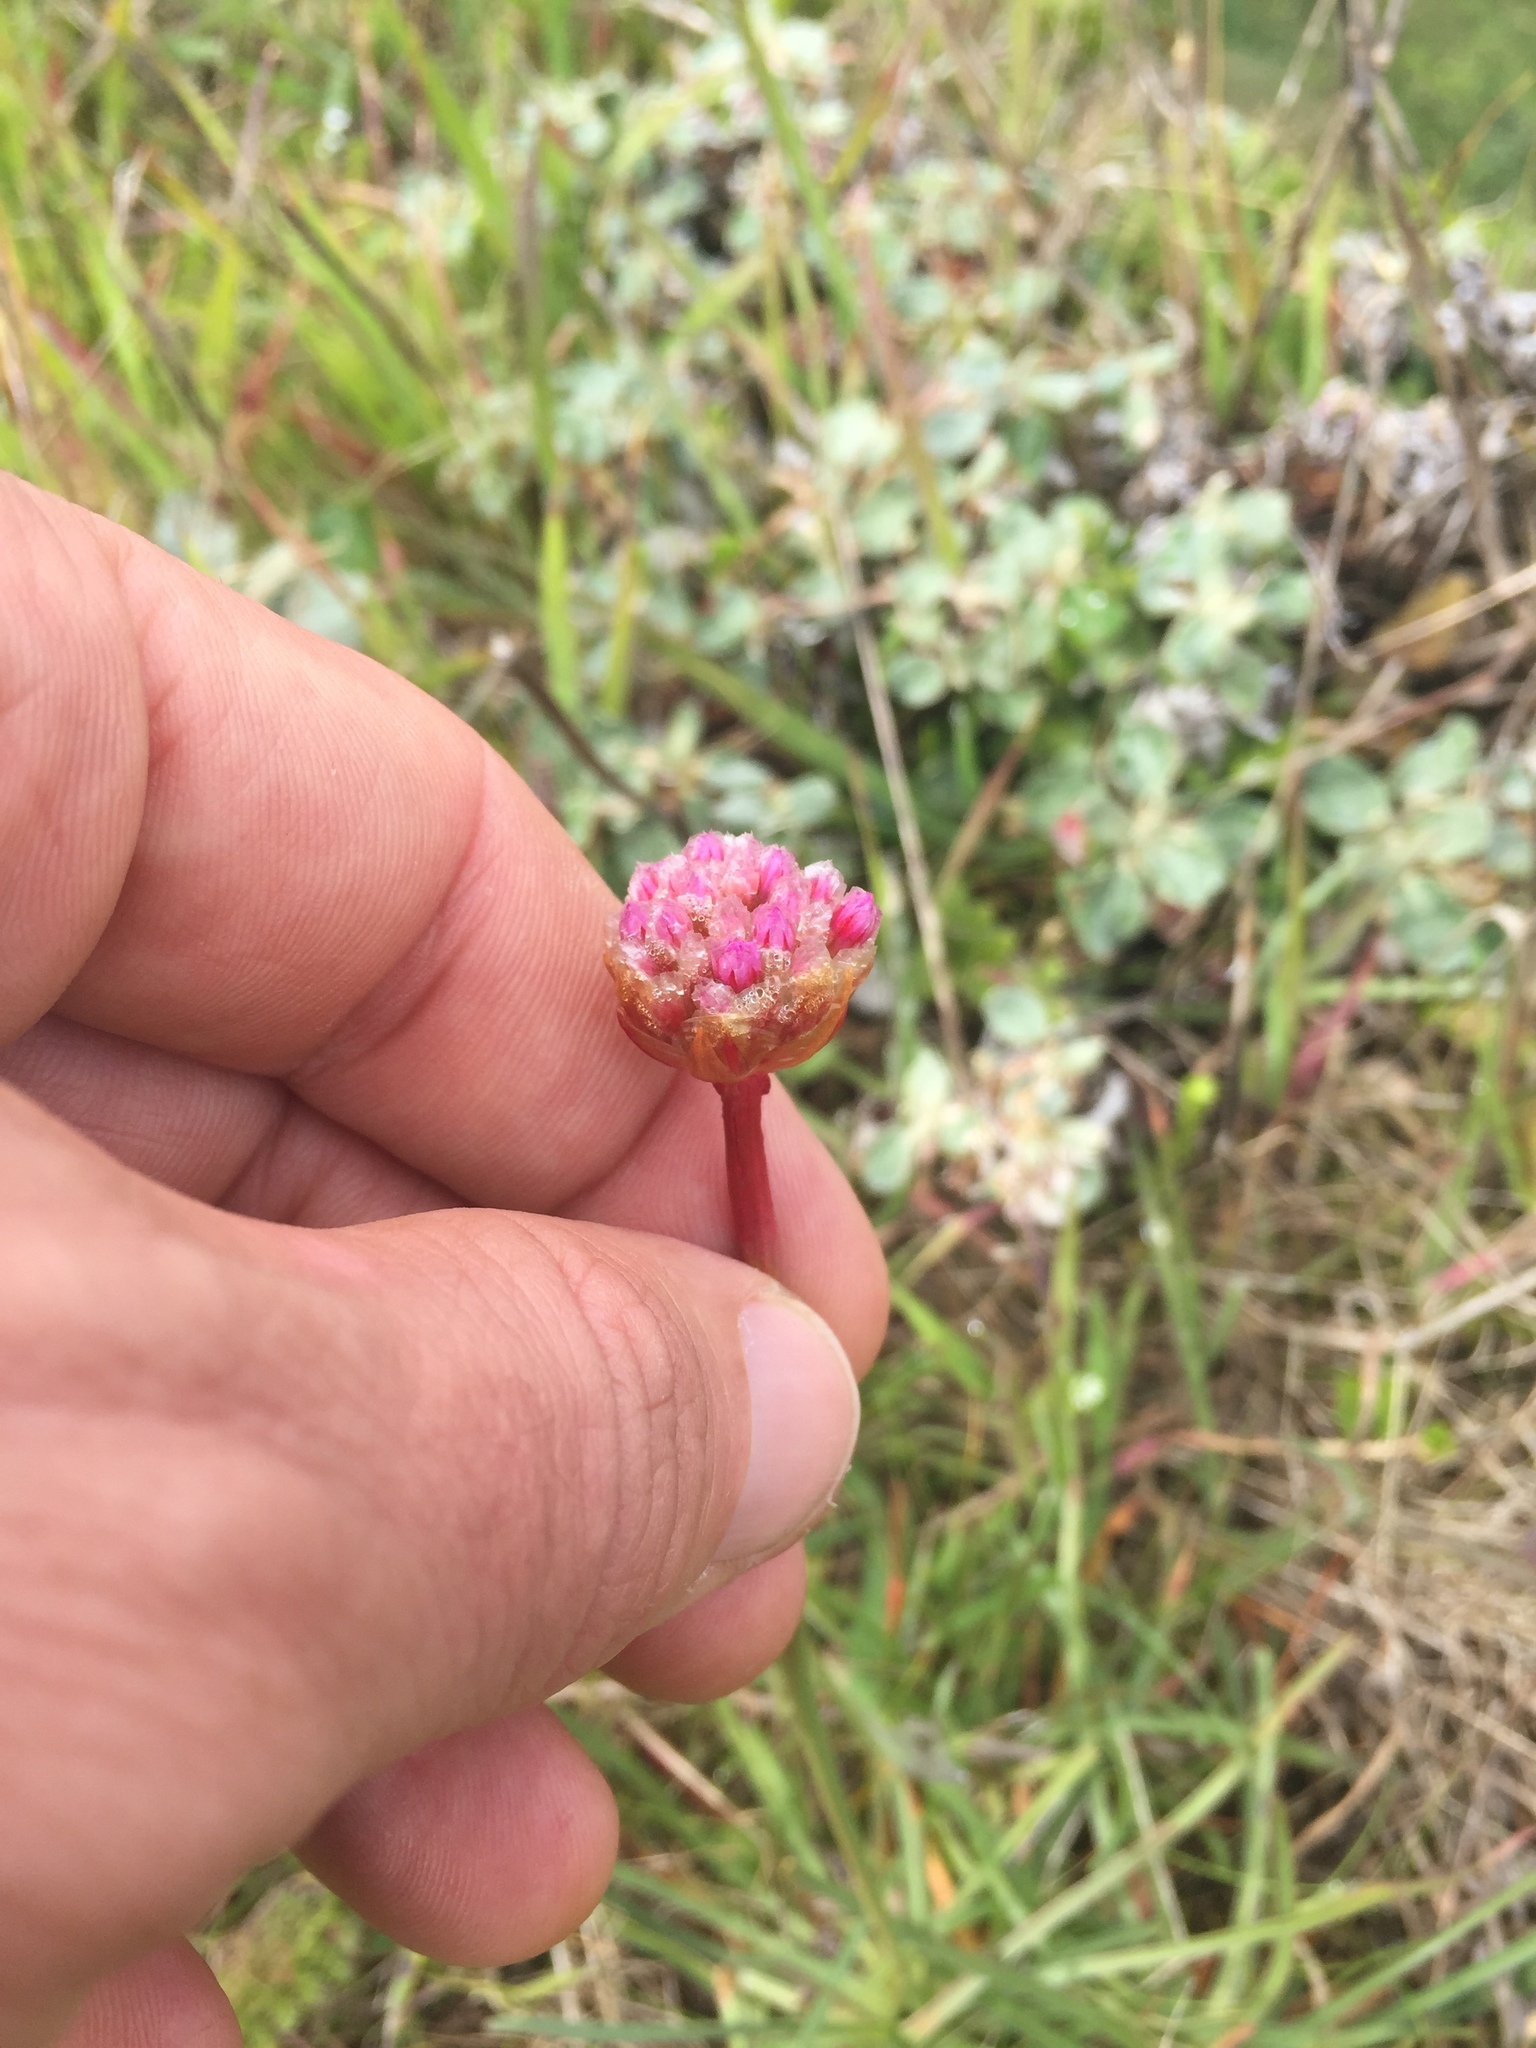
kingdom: Plantae
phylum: Tracheophyta
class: Magnoliopsida
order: Caryophyllales
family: Plumbaginaceae
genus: Armeria
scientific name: Armeria maritima
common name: Thrift
